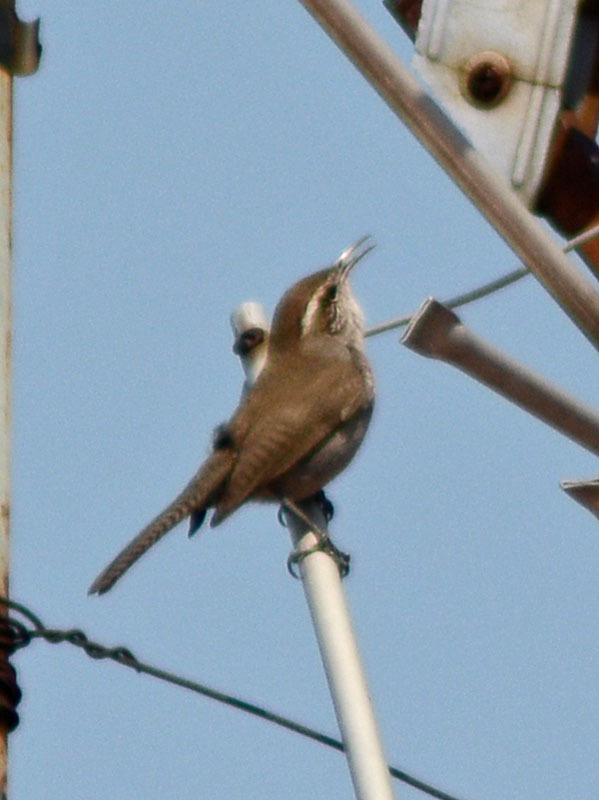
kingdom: Animalia
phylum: Chordata
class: Aves
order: Passeriformes
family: Troglodytidae
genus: Thryomanes
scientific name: Thryomanes bewickii
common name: Bewick's wren
